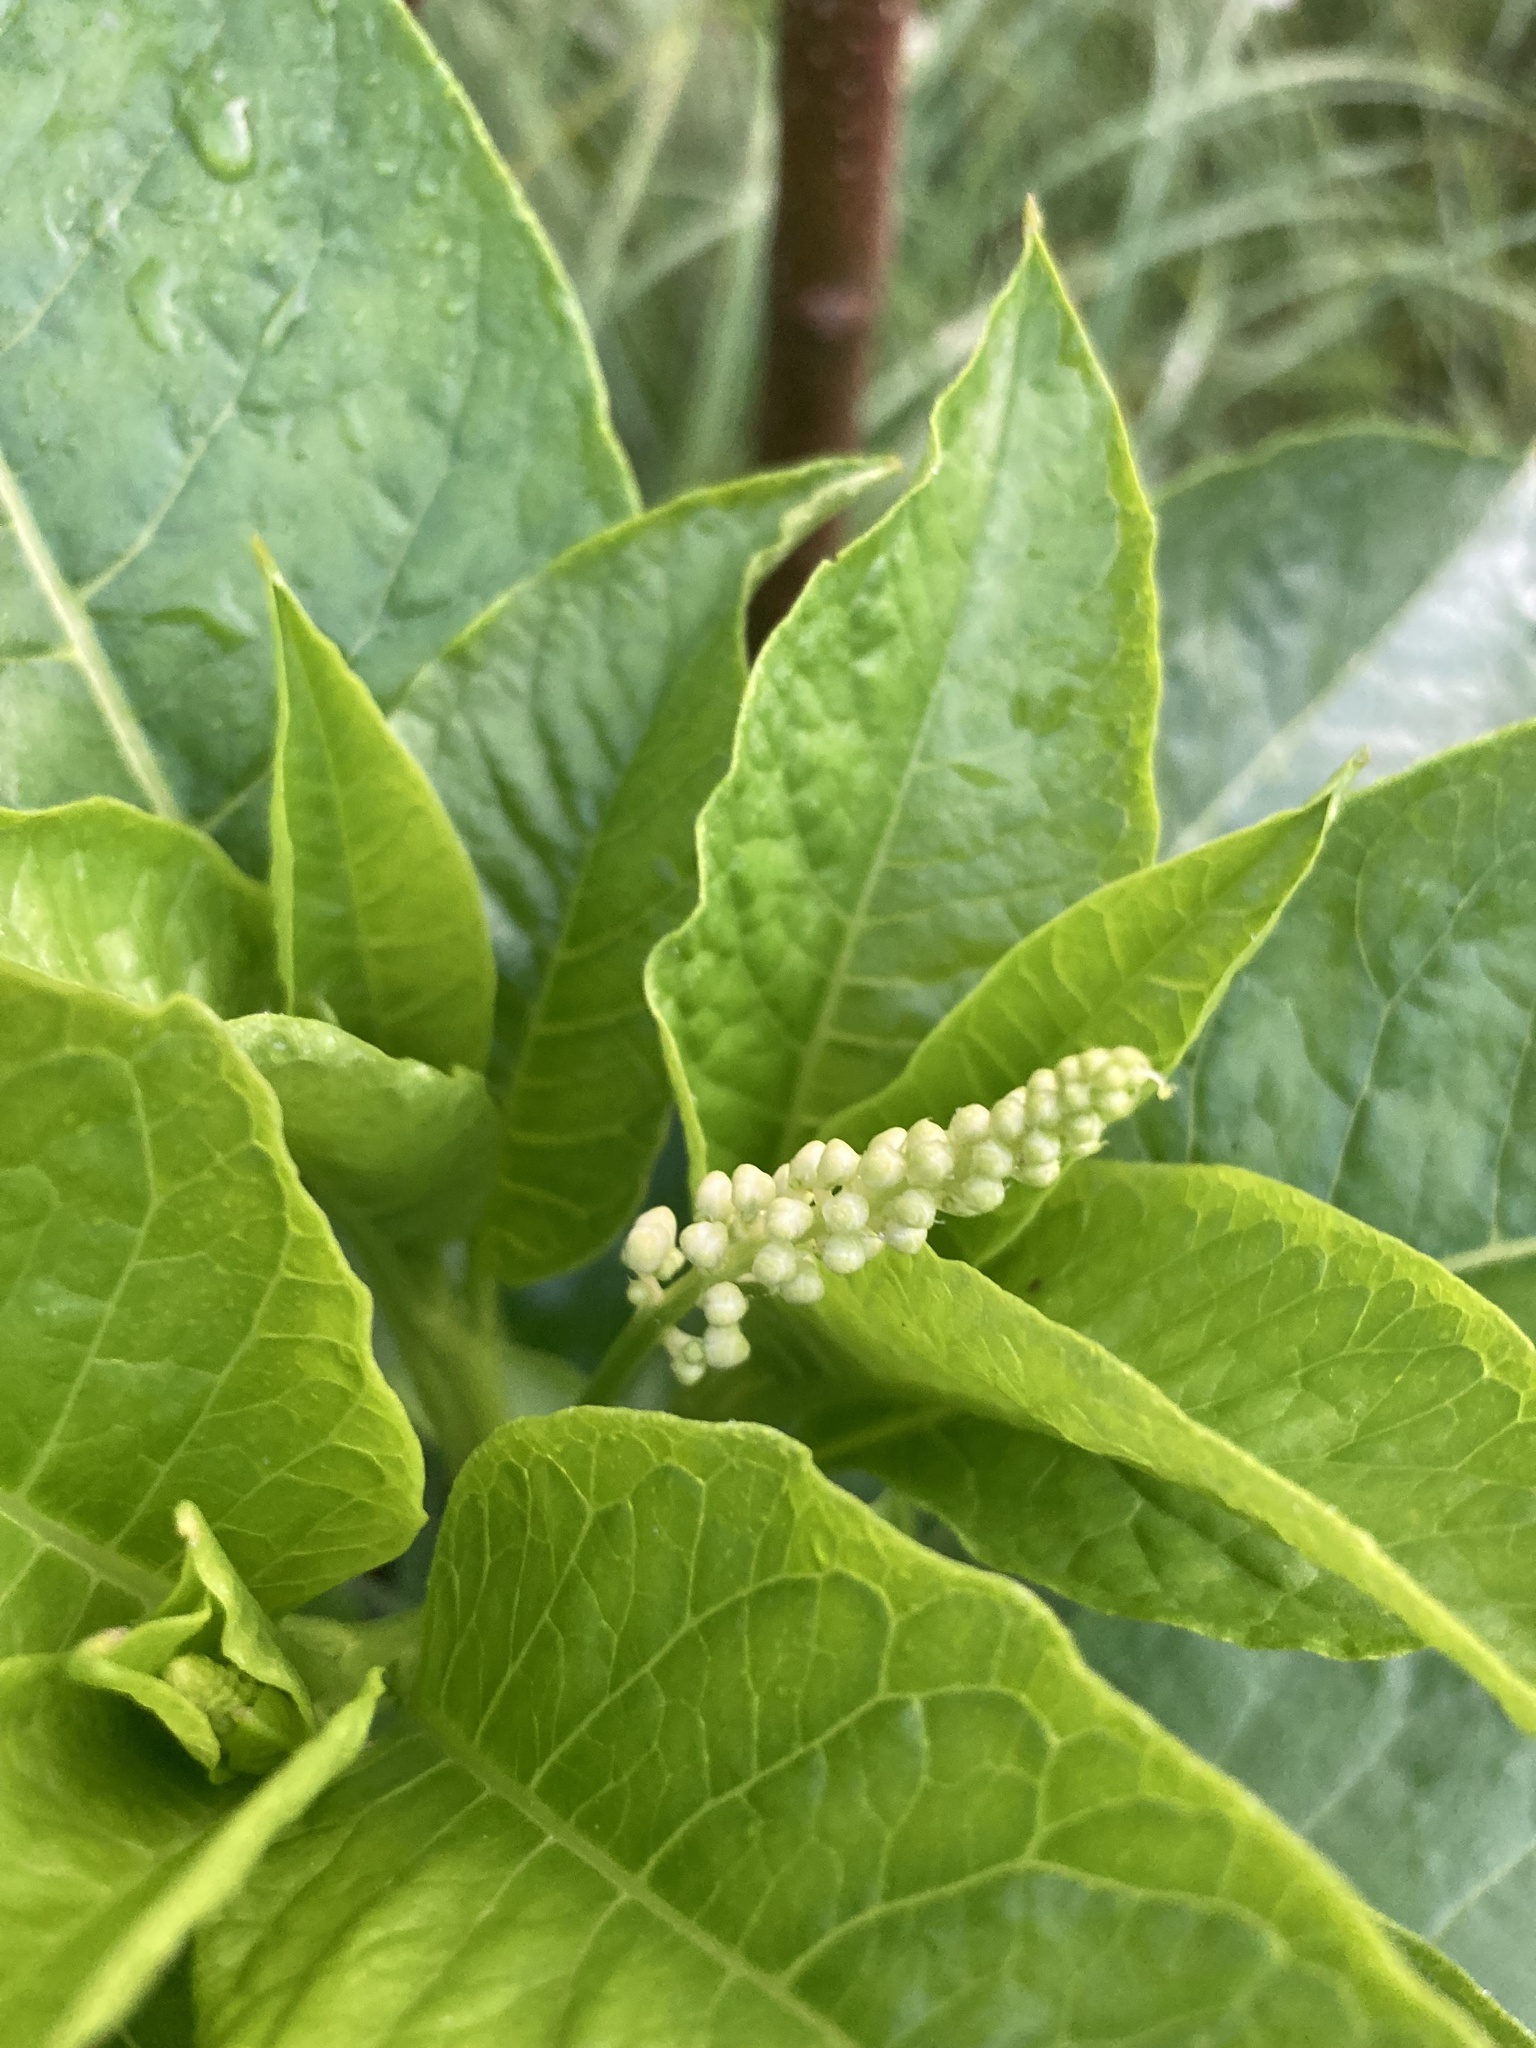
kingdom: Plantae
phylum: Tracheophyta
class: Magnoliopsida
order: Caryophyllales
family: Phytolaccaceae
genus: Phytolacca
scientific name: Phytolacca americana
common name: American pokeweed
